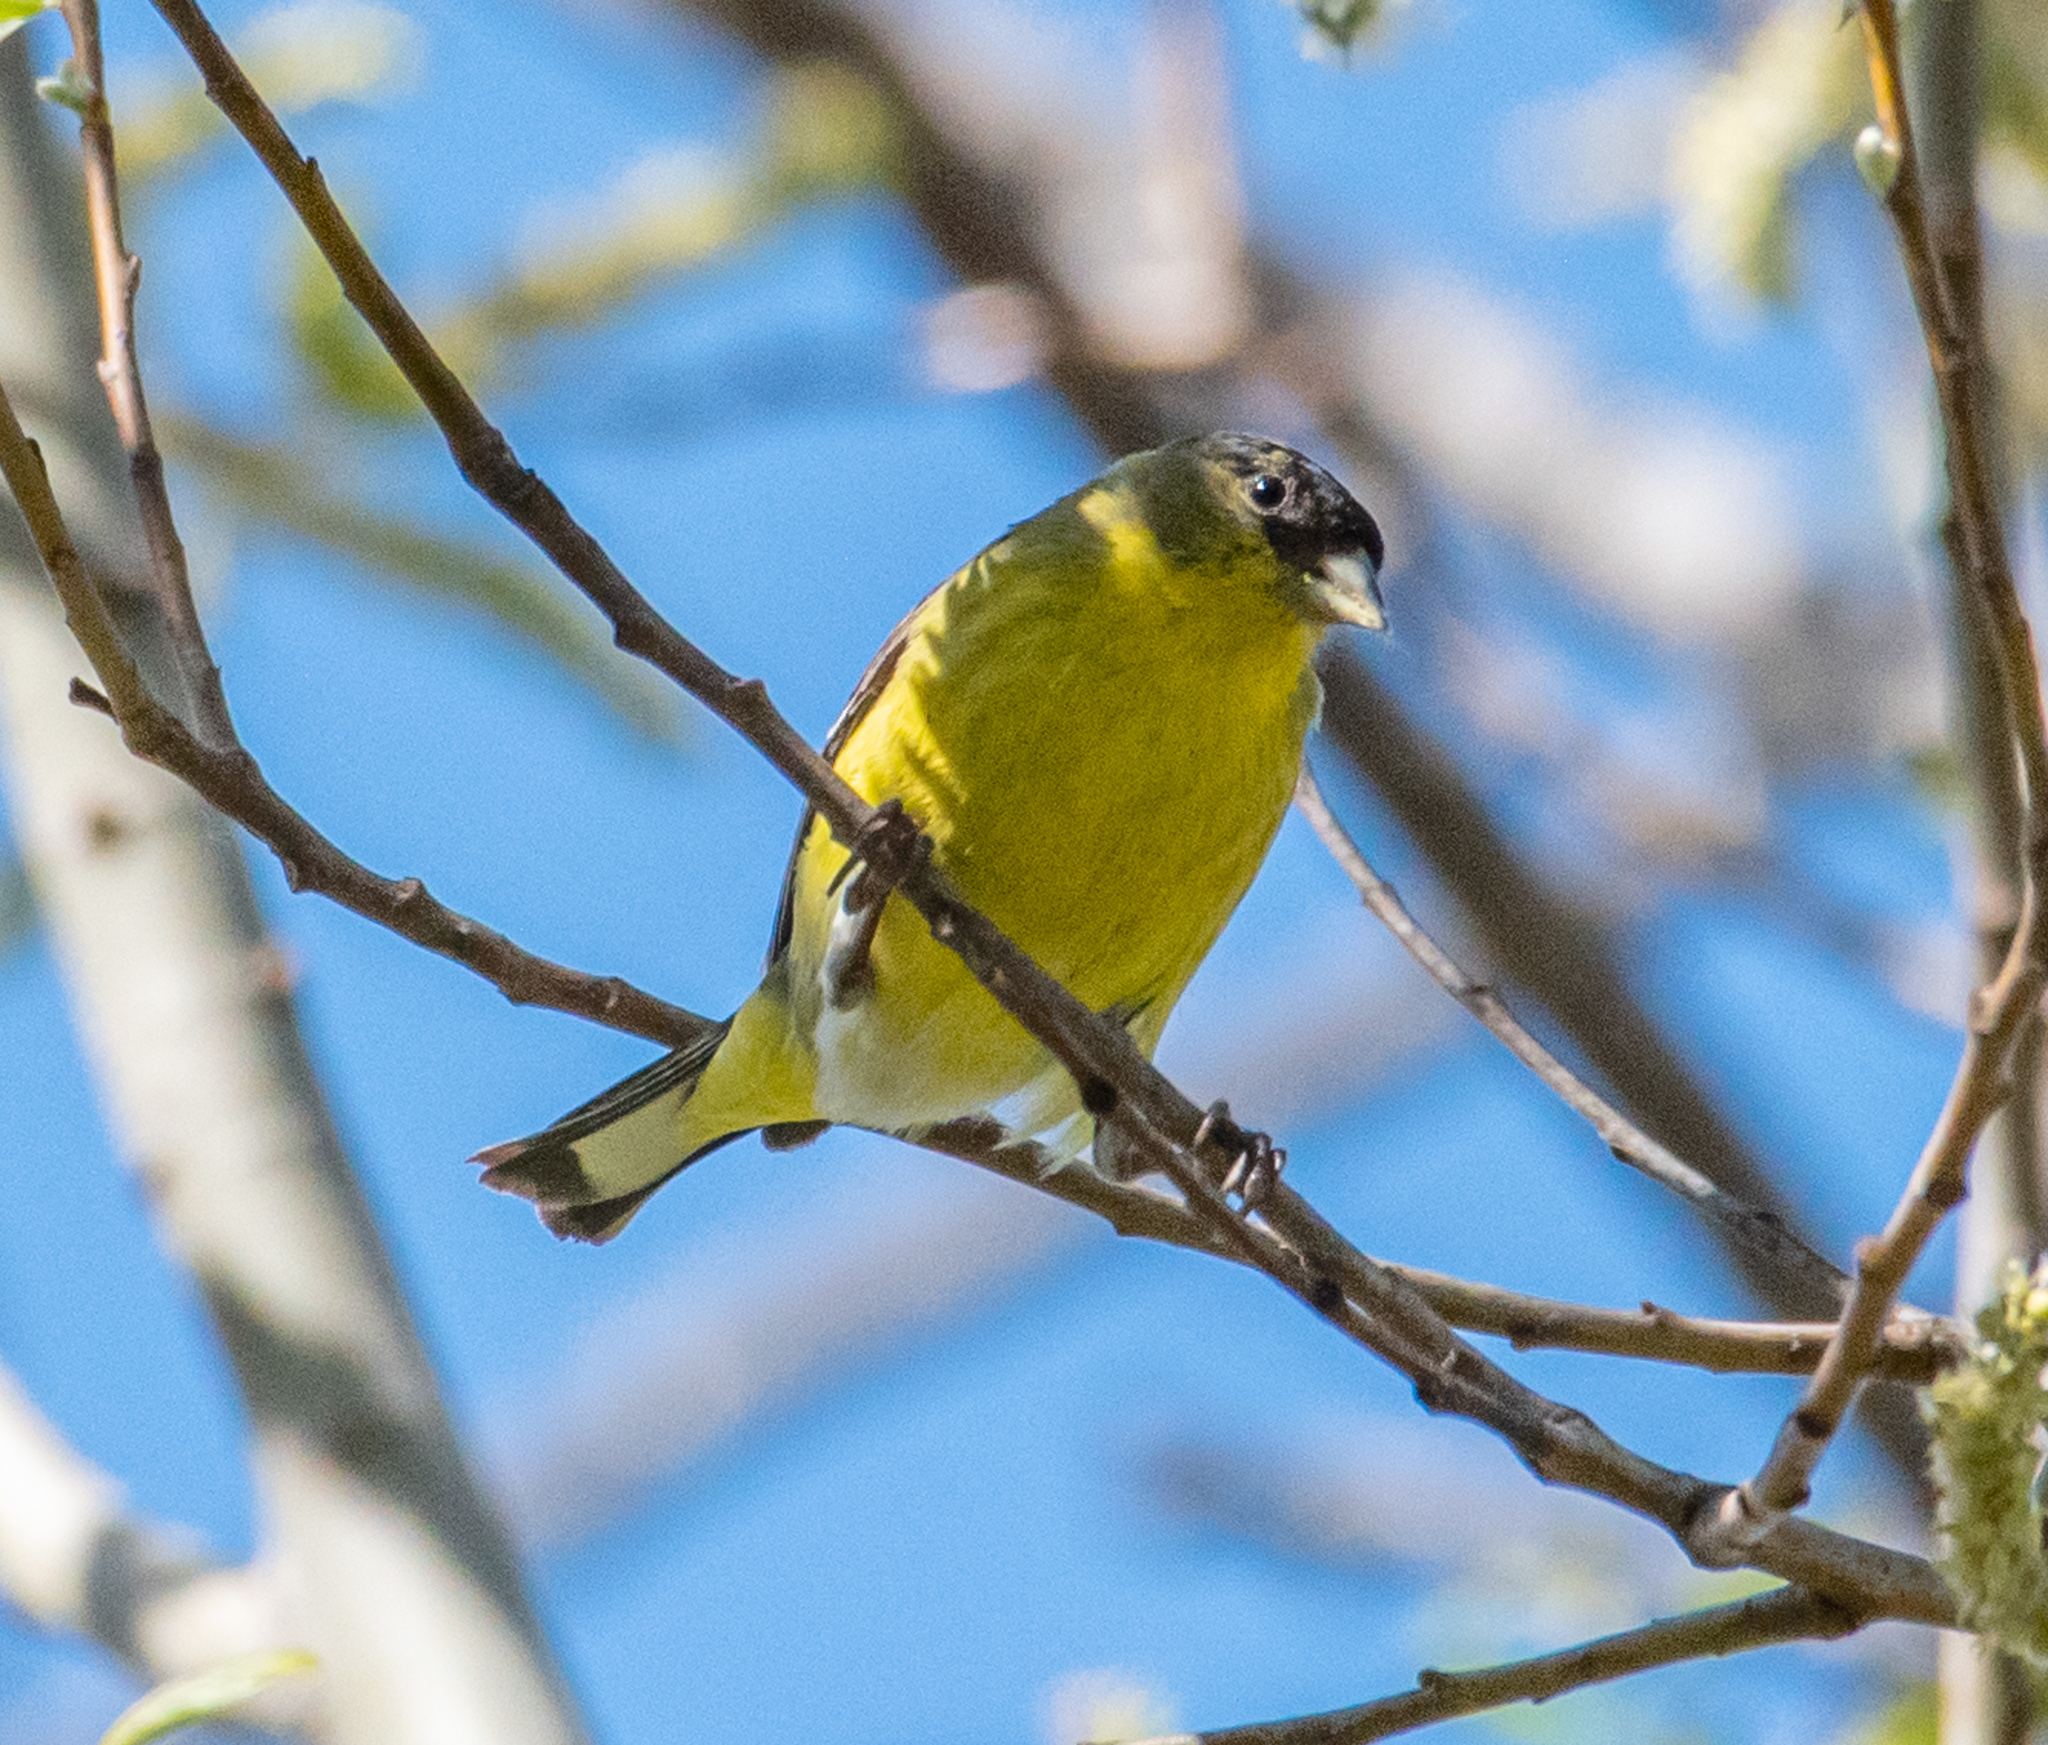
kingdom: Animalia
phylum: Chordata
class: Aves
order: Passeriformes
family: Fringillidae
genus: Spinus
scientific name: Spinus psaltria
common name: Lesser goldfinch
